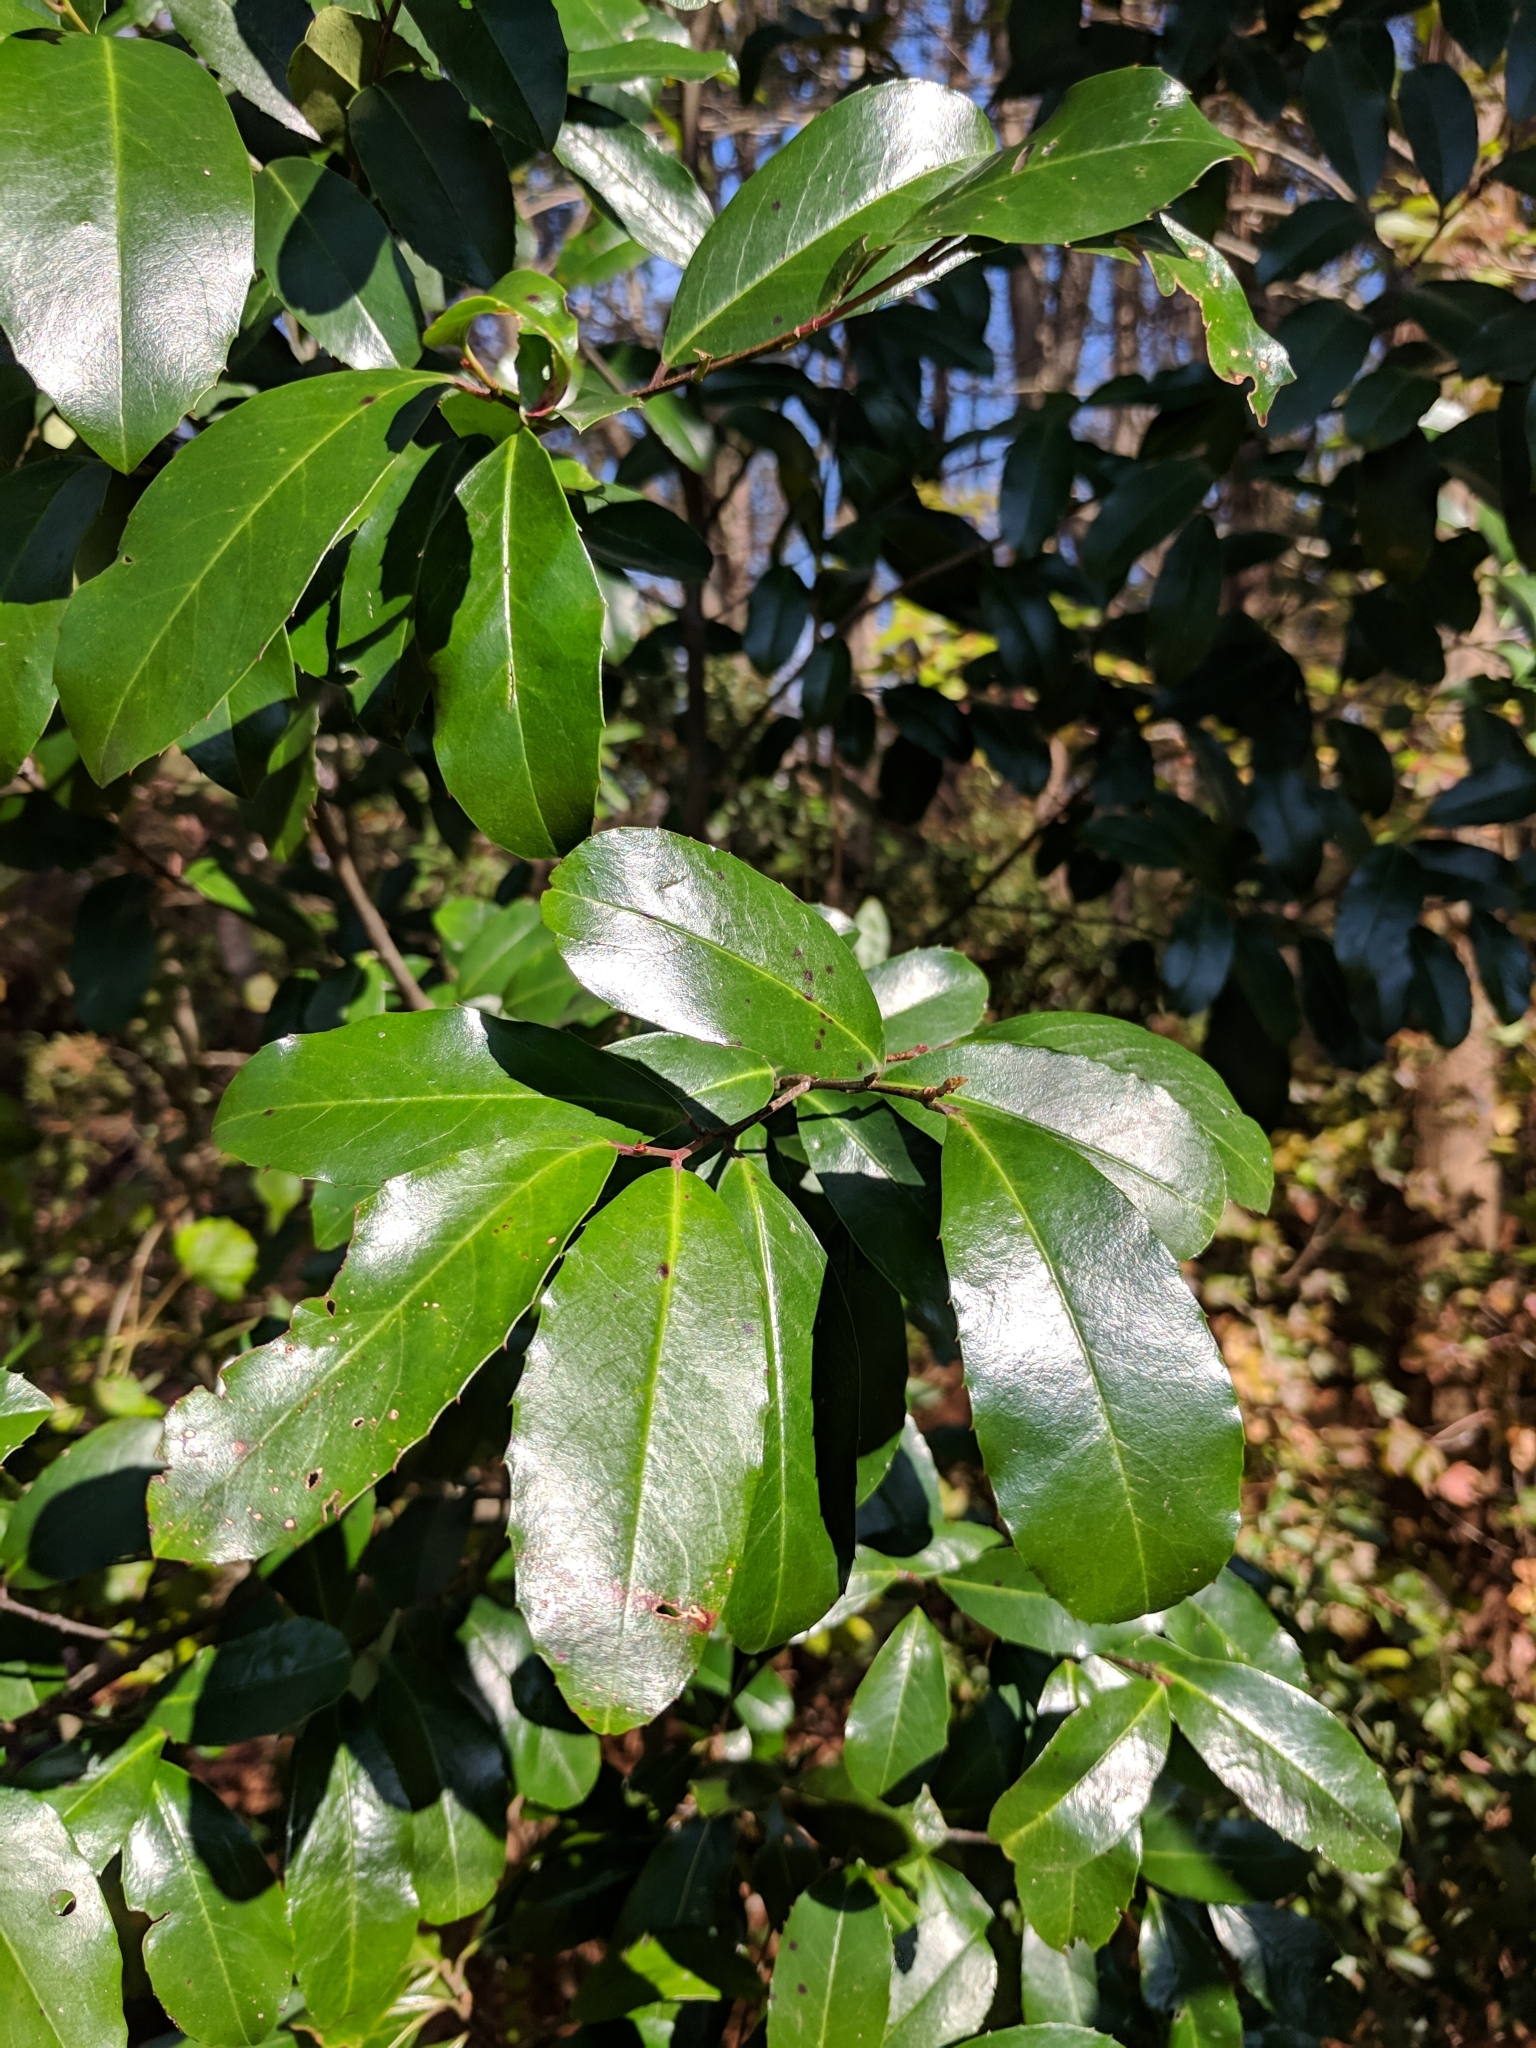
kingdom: Plantae
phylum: Tracheophyta
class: Magnoliopsida
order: Rosales
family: Rosaceae
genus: Prunus
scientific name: Prunus caroliniana
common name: Carolina laurel cherry
